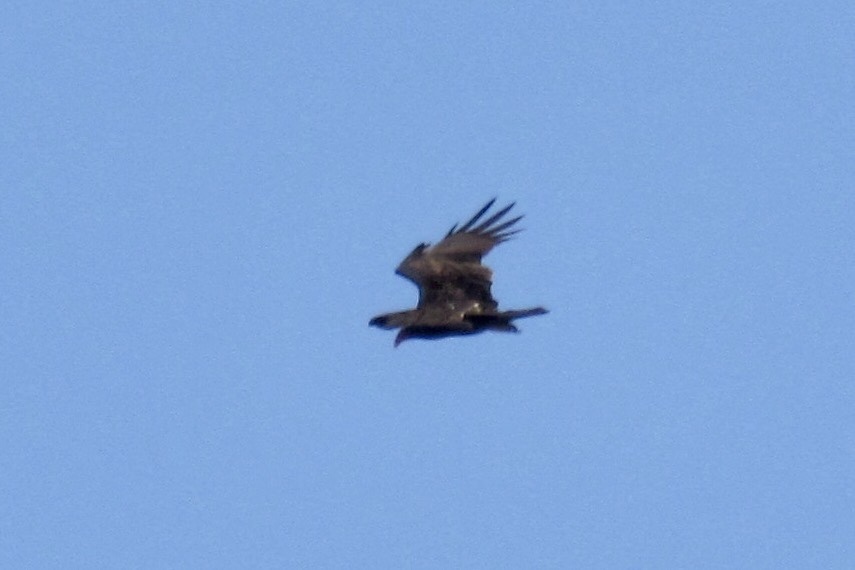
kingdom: Animalia
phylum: Chordata
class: Aves
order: Accipitriformes
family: Cathartidae
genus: Cathartes
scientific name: Cathartes aura
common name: Turkey vulture
